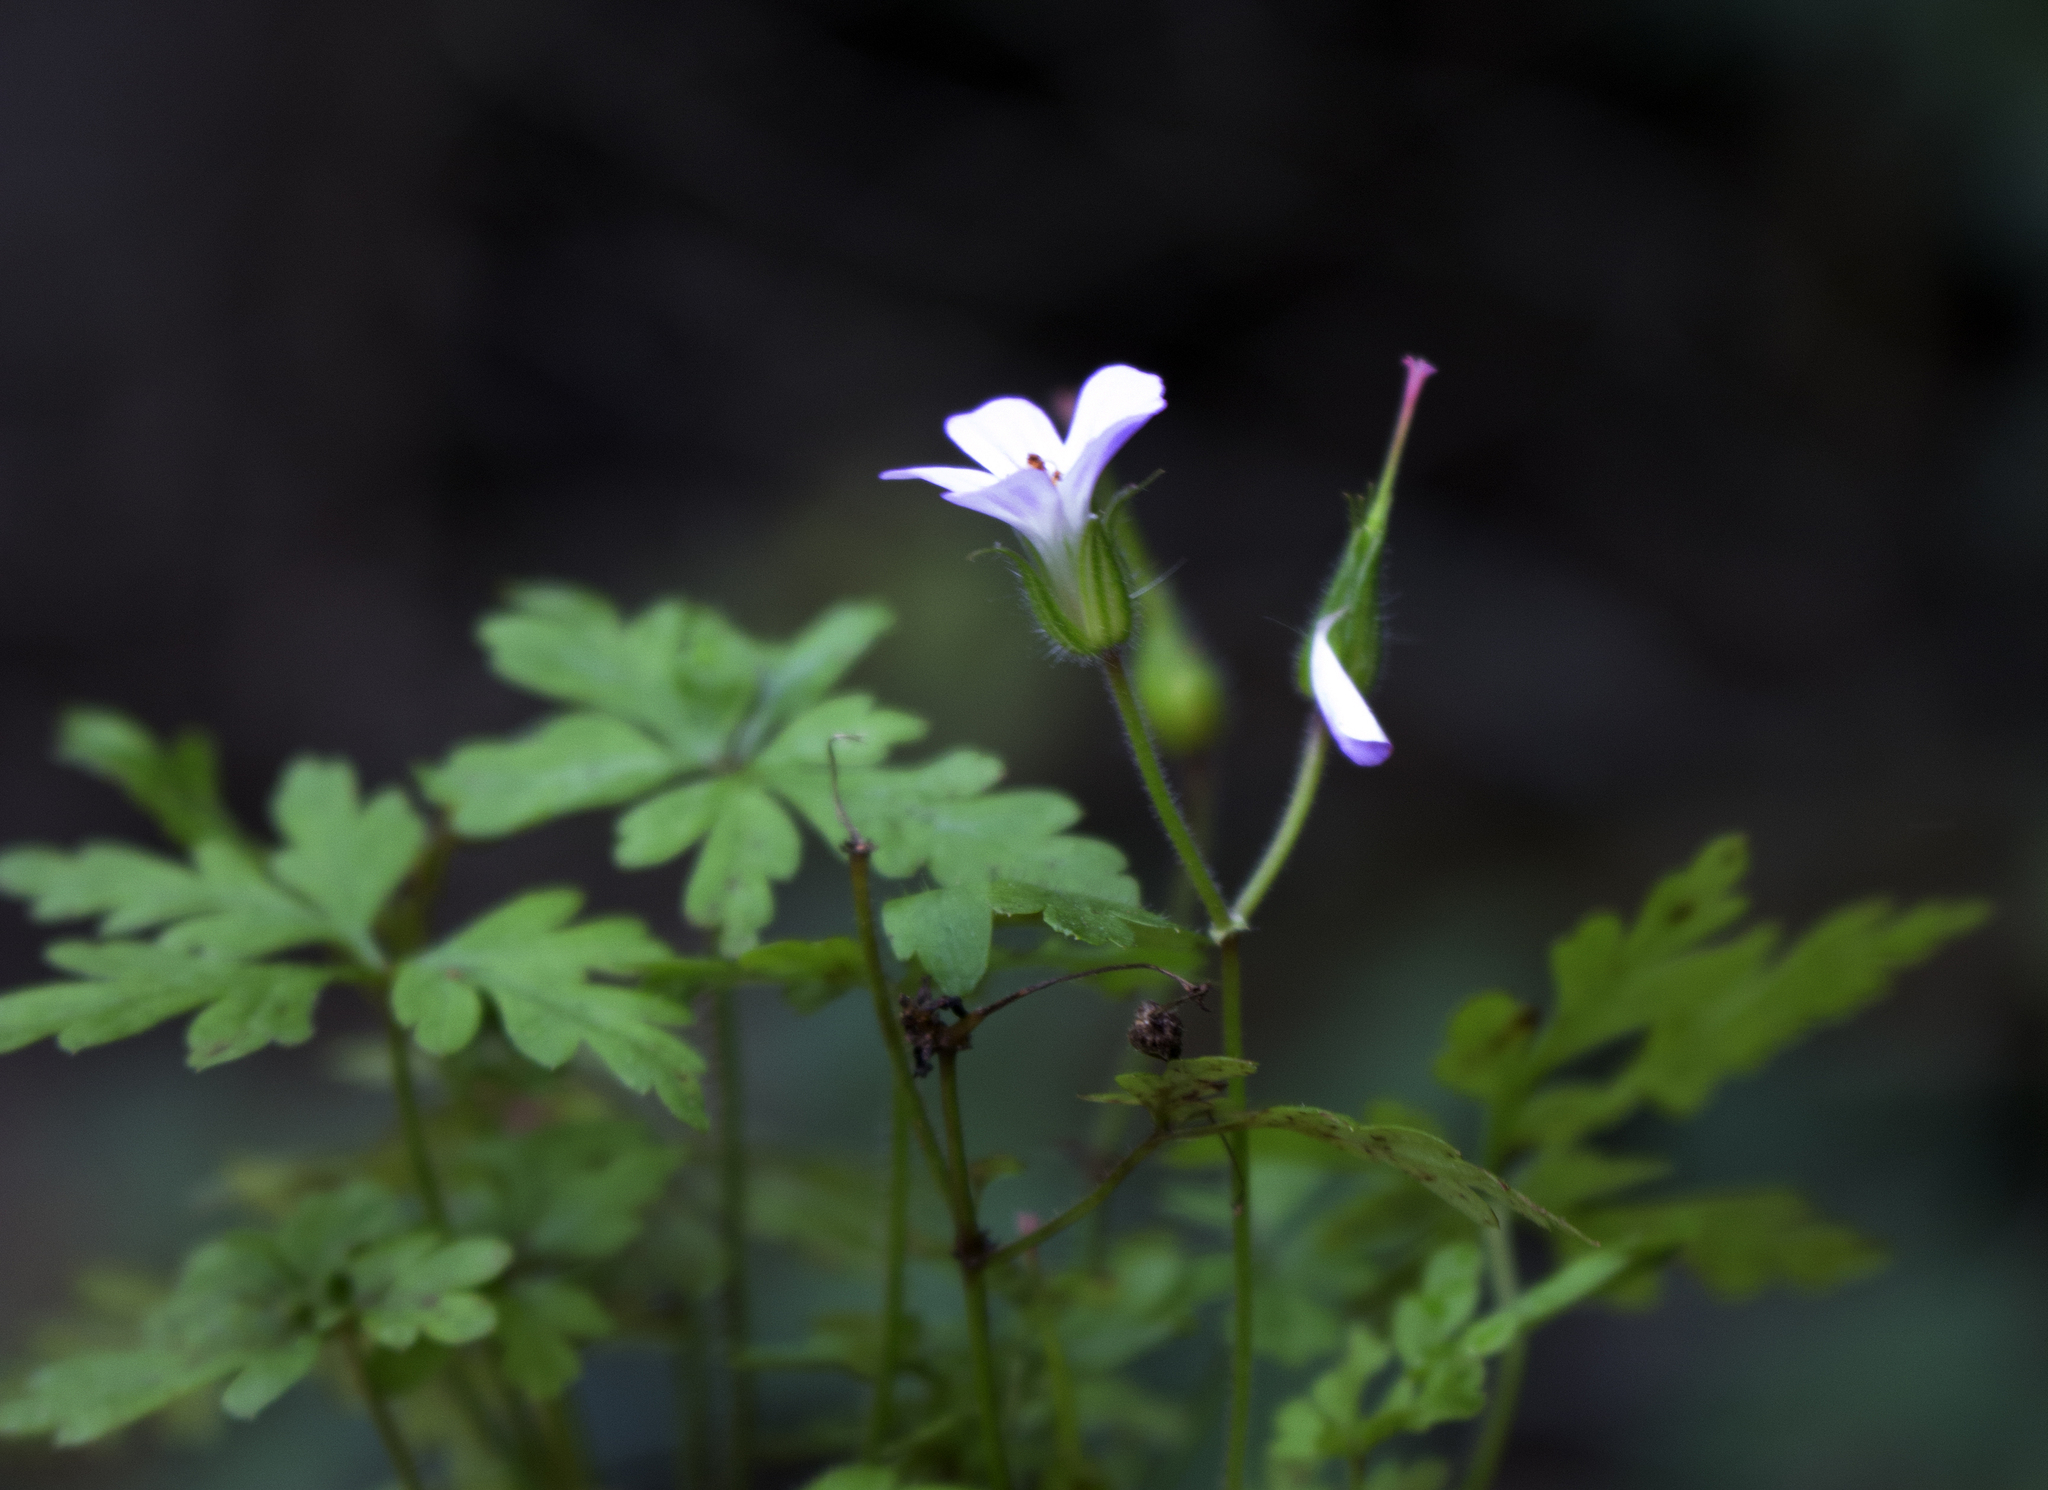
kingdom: Plantae
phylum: Tracheophyta
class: Magnoliopsida
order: Geraniales
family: Geraniaceae
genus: Geranium
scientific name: Geranium robertianum
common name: Herb-robert
